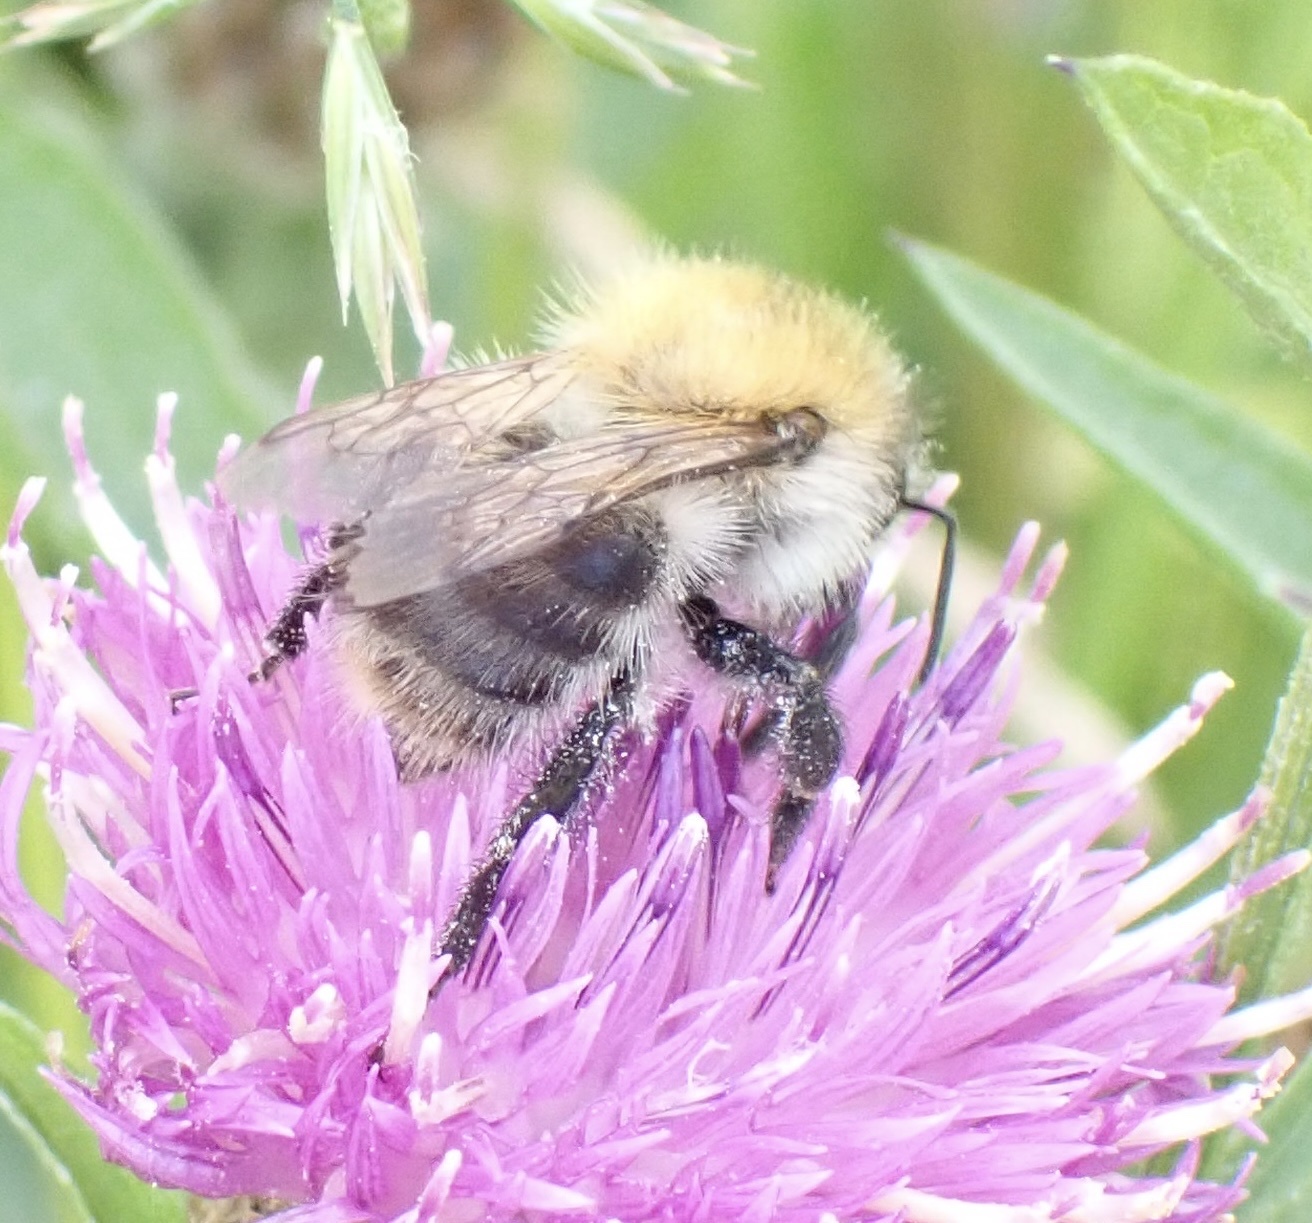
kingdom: Animalia
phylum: Arthropoda
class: Insecta
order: Hymenoptera
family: Apidae
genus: Bombus
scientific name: Bombus pascuorum
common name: Common carder bee
